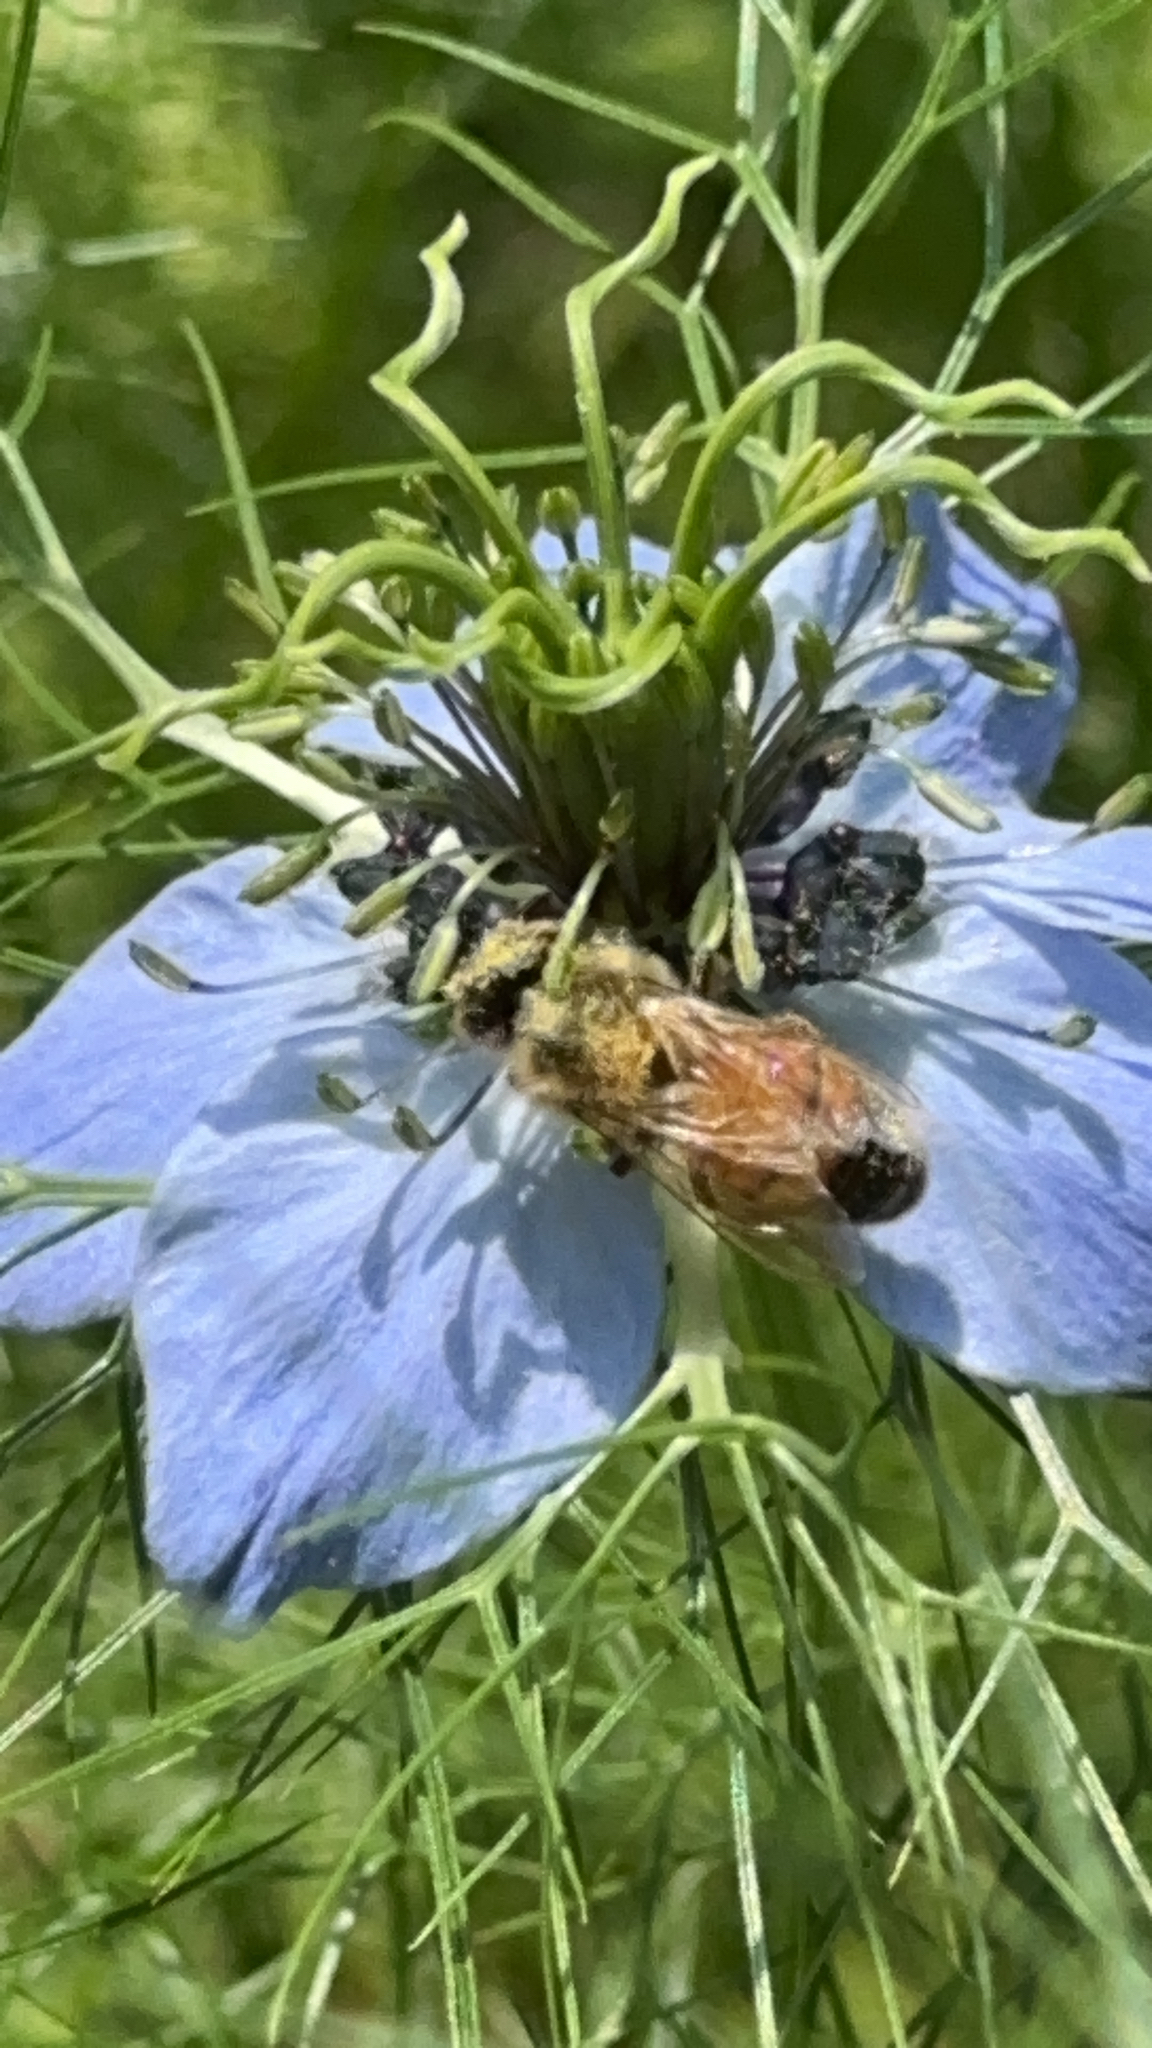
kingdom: Animalia
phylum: Arthropoda
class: Insecta
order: Hymenoptera
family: Apidae
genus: Apis
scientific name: Apis mellifera
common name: Honey bee
